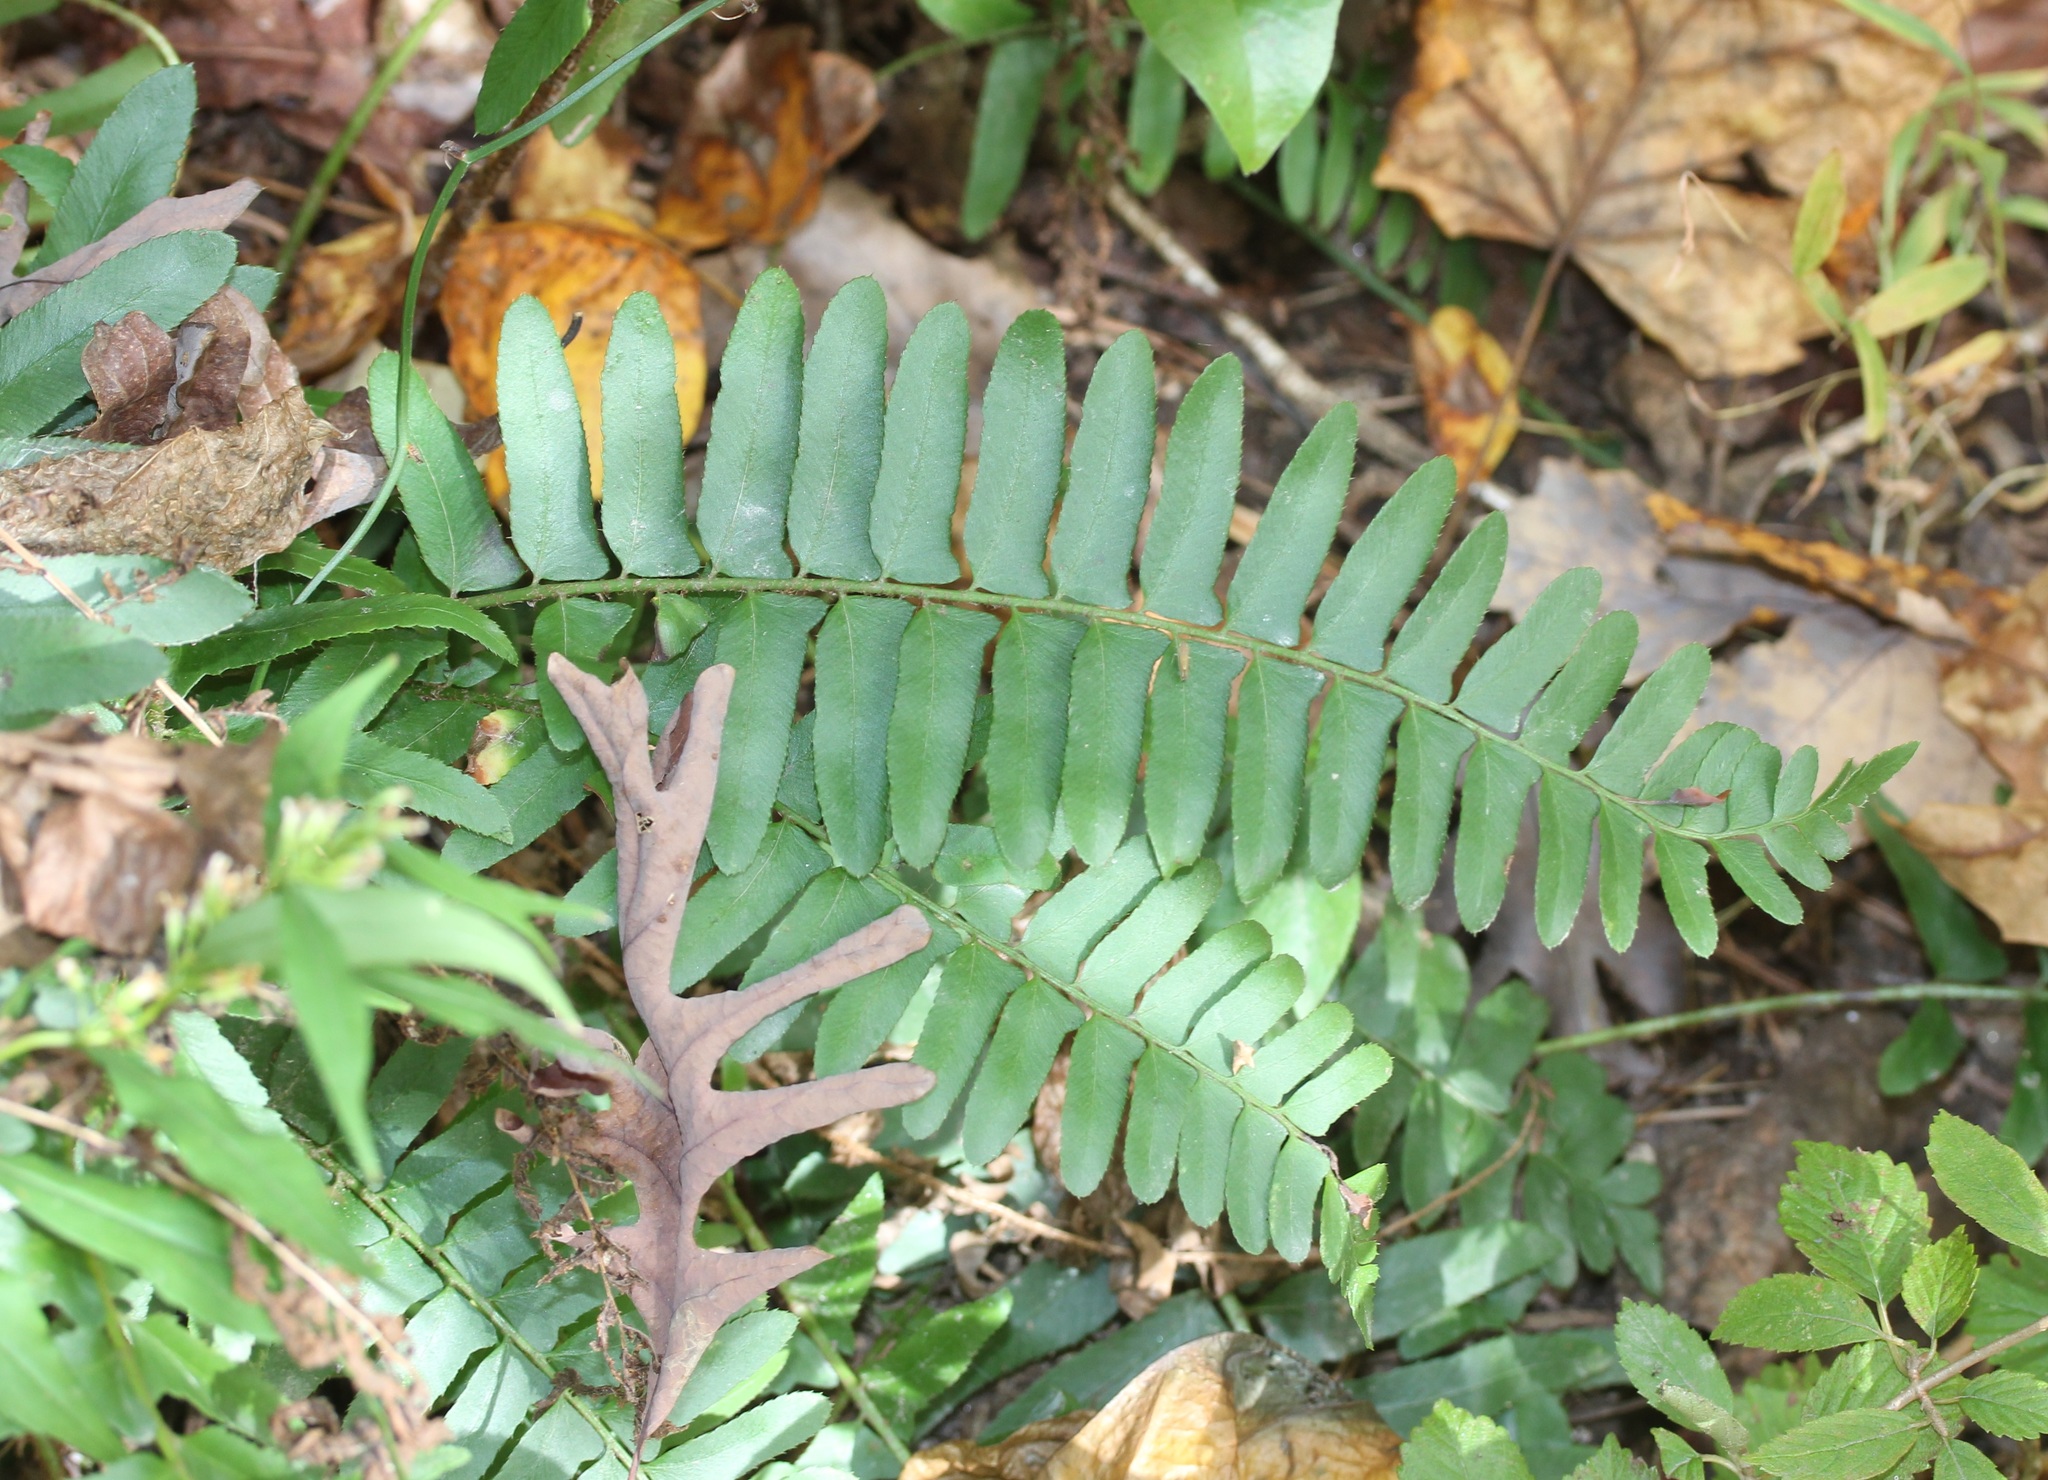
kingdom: Plantae
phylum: Tracheophyta
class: Polypodiopsida
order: Polypodiales
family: Dryopteridaceae
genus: Polystichum
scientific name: Polystichum acrostichoides
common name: Christmas fern
